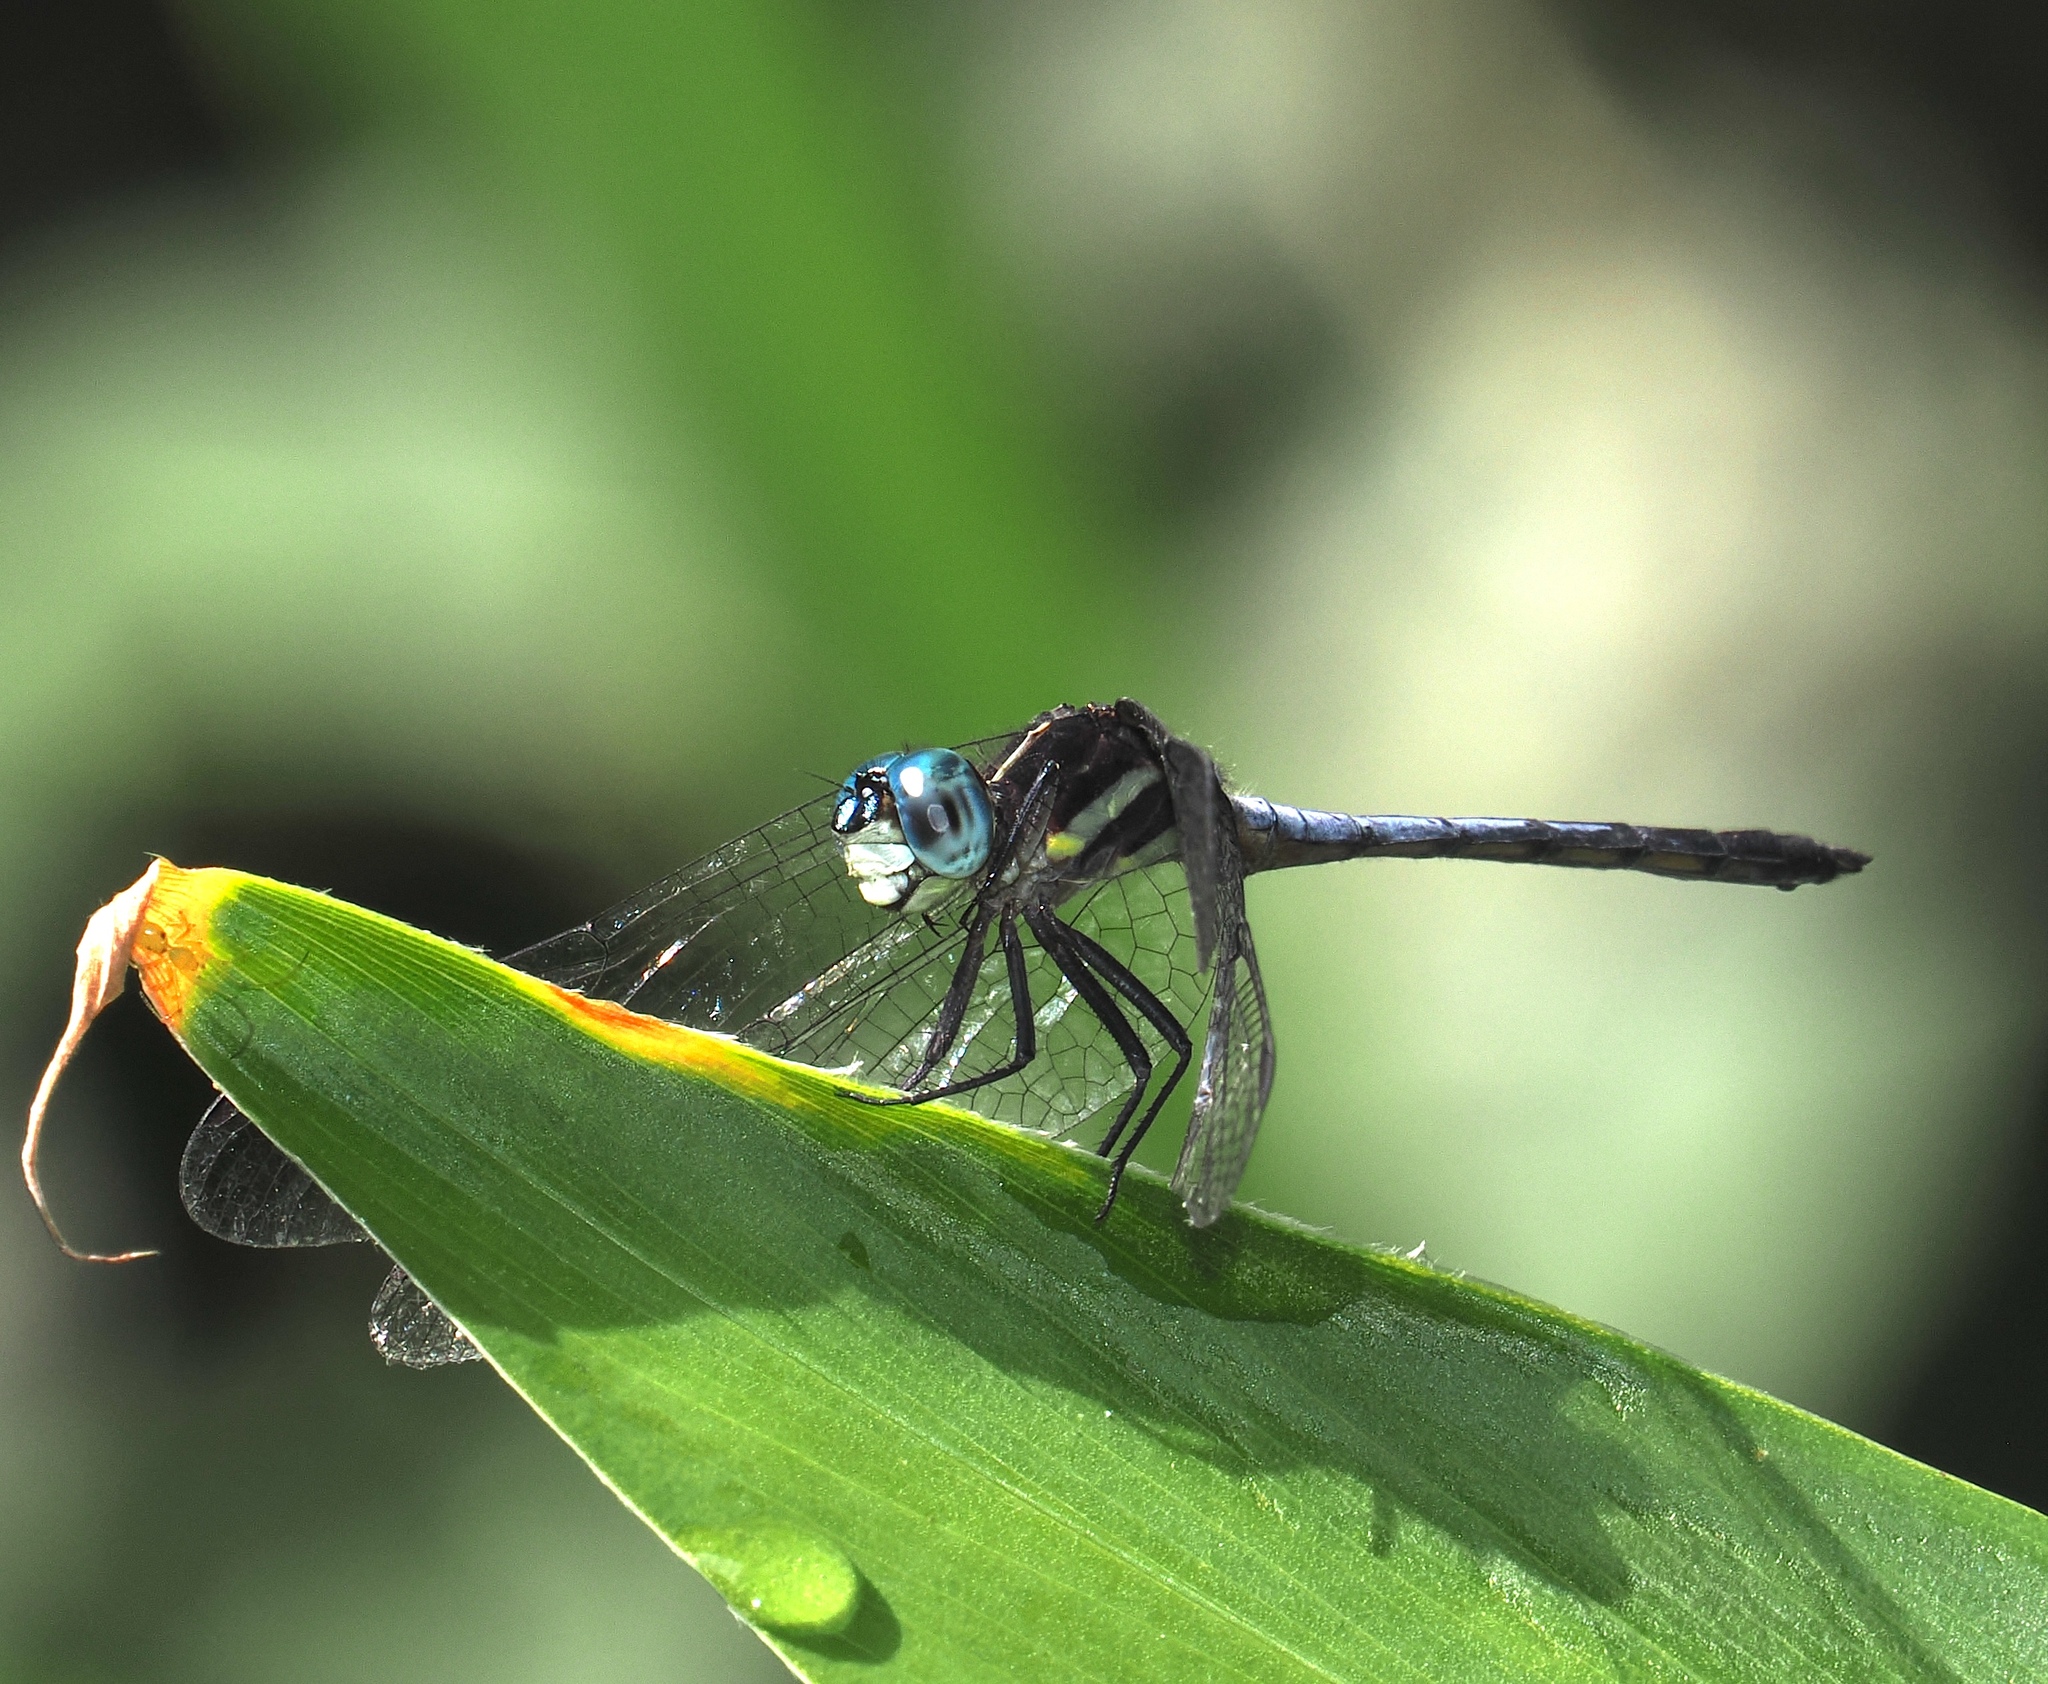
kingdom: Animalia
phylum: Arthropoda
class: Insecta
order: Odonata
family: Libellulidae
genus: Dasythemis
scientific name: Dasythemis mincki
